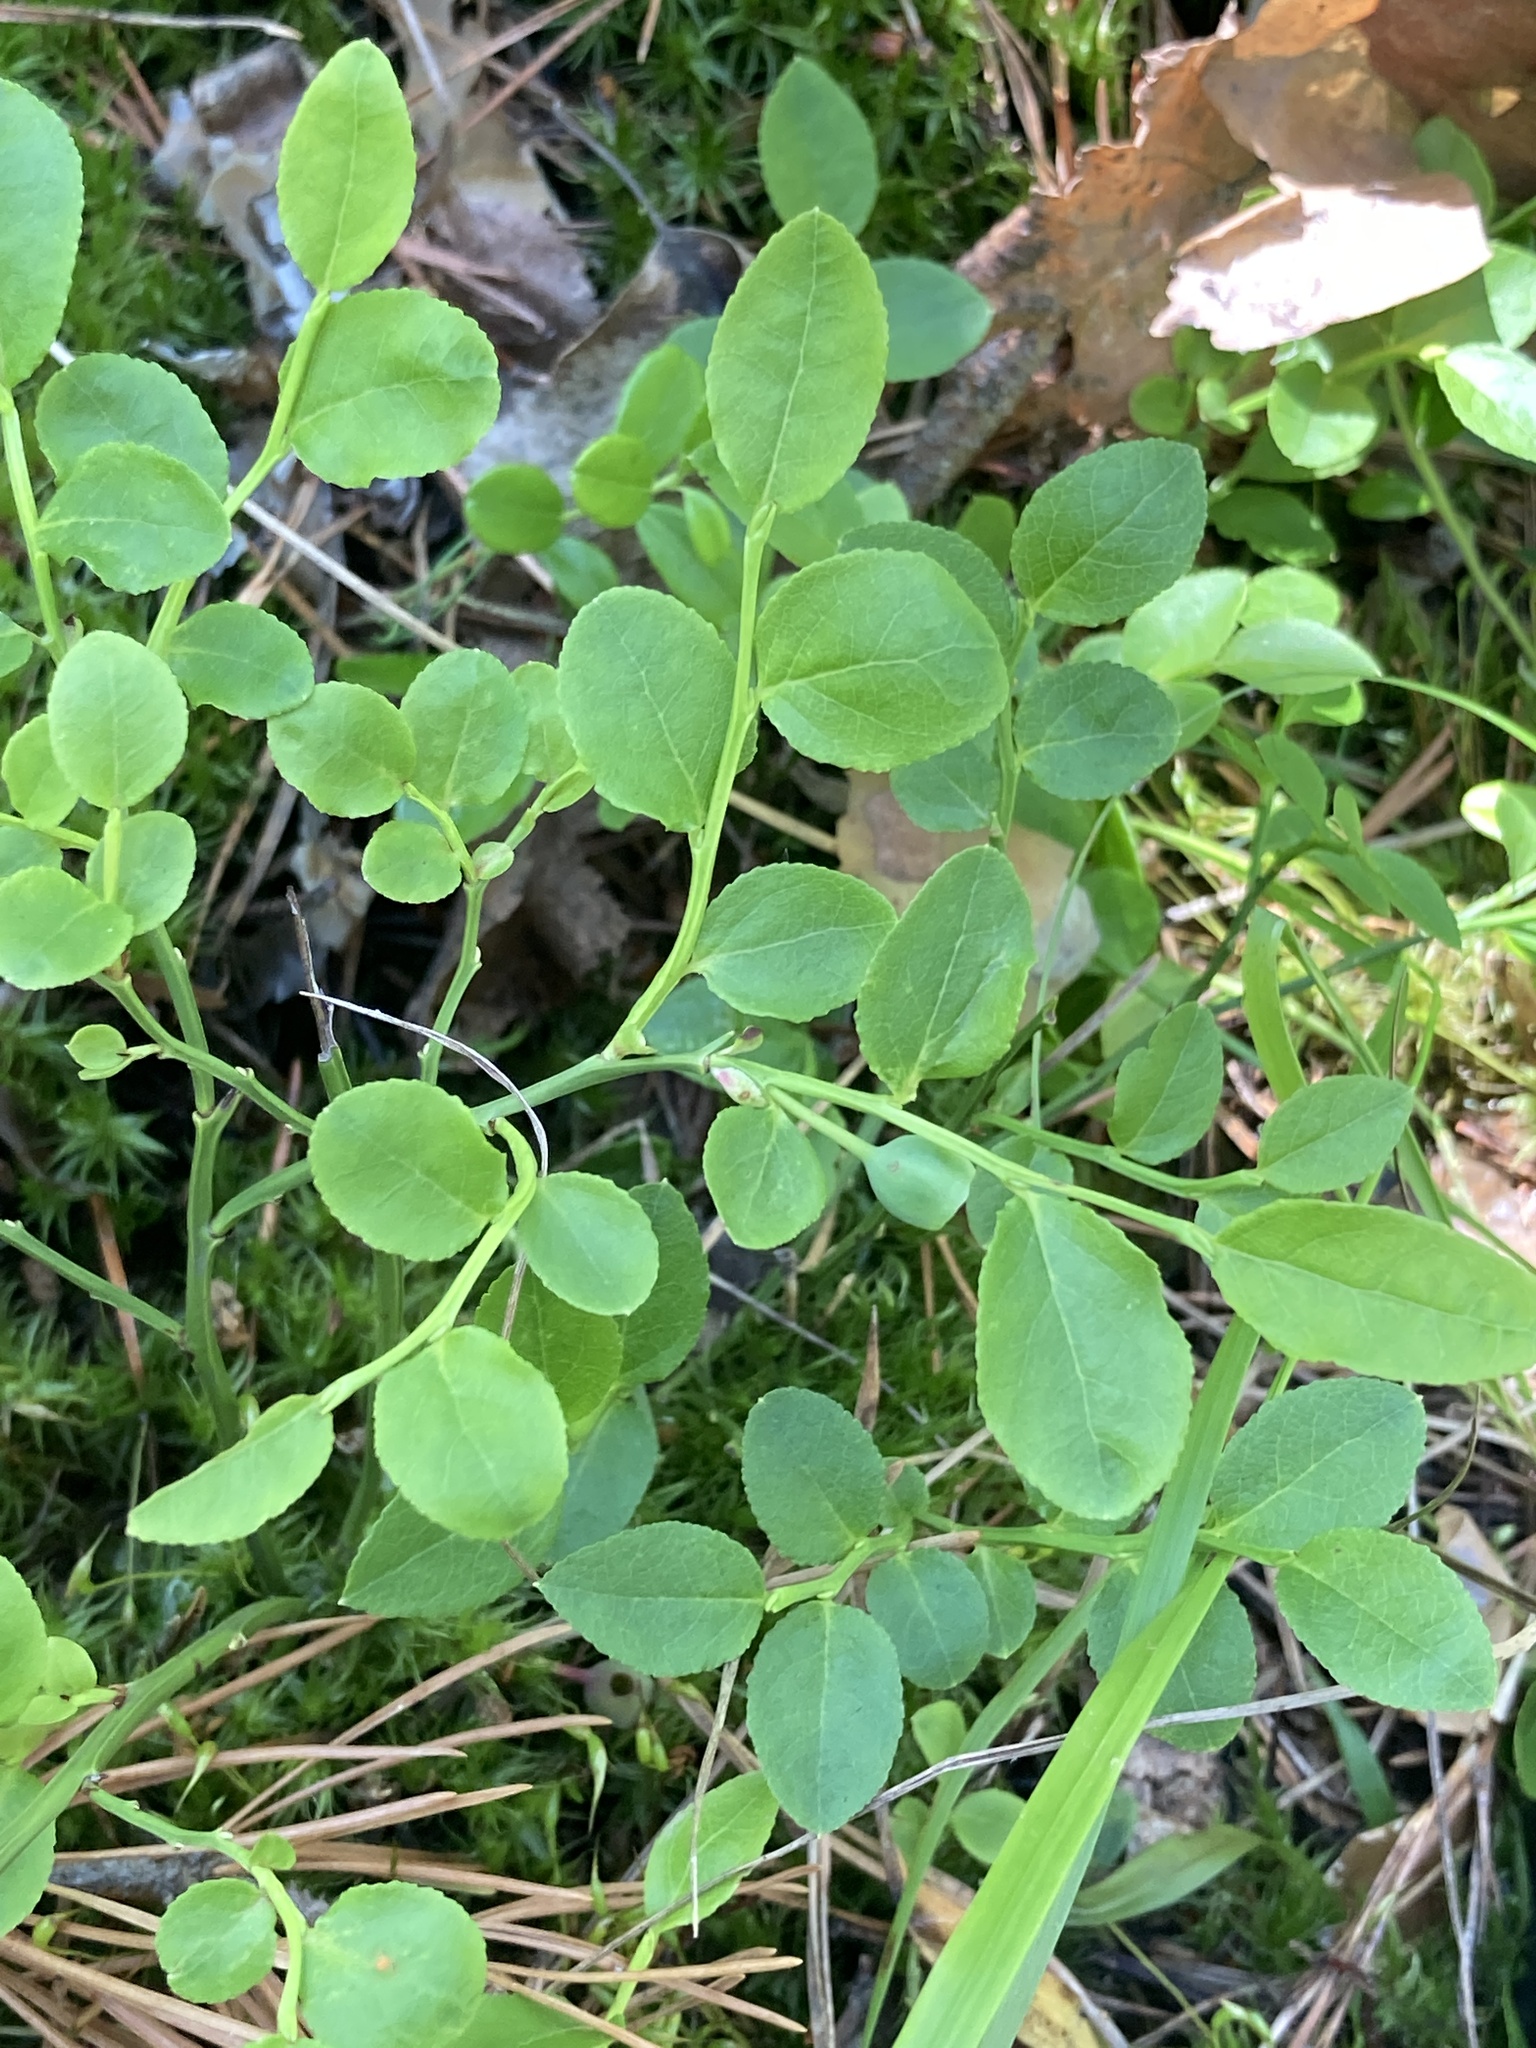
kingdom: Plantae
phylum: Tracheophyta
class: Magnoliopsida
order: Ericales
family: Ericaceae
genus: Vaccinium
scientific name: Vaccinium myrtillus
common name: Bilberry
